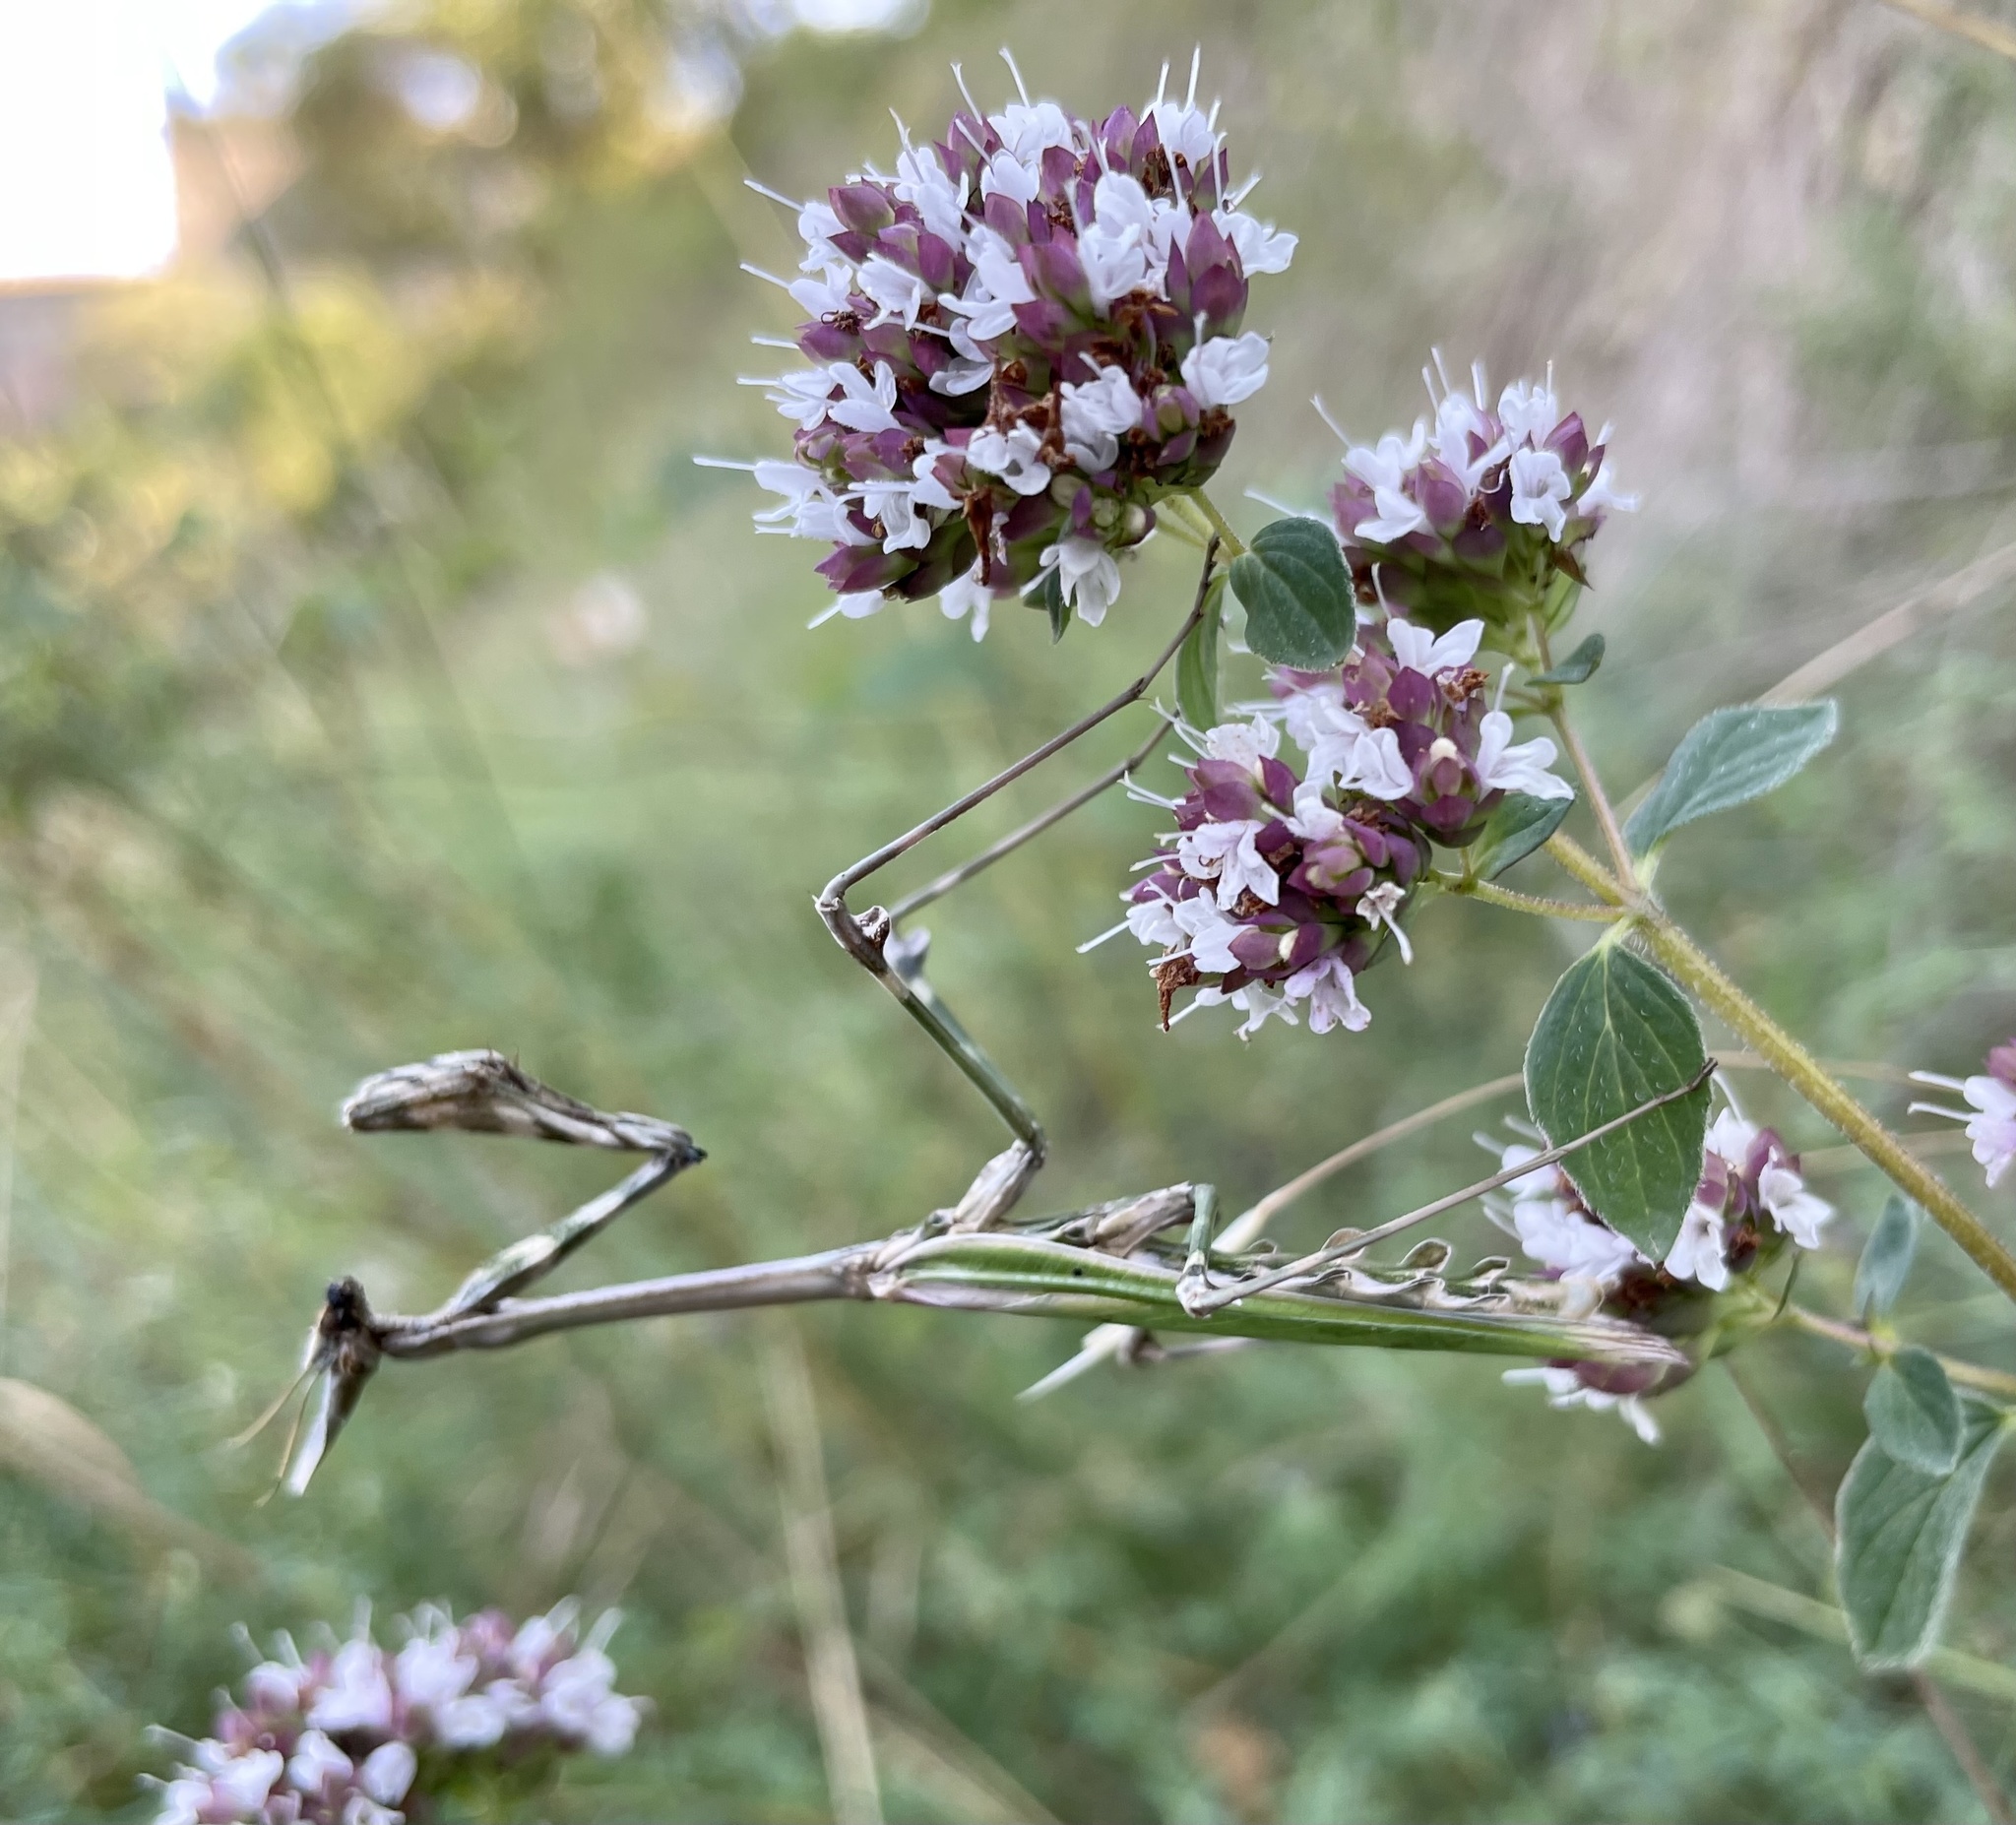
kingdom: Animalia
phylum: Arthropoda
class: Insecta
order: Mantodea
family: Empusidae
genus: Empusa
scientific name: Empusa pennata
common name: Conehead mantis
